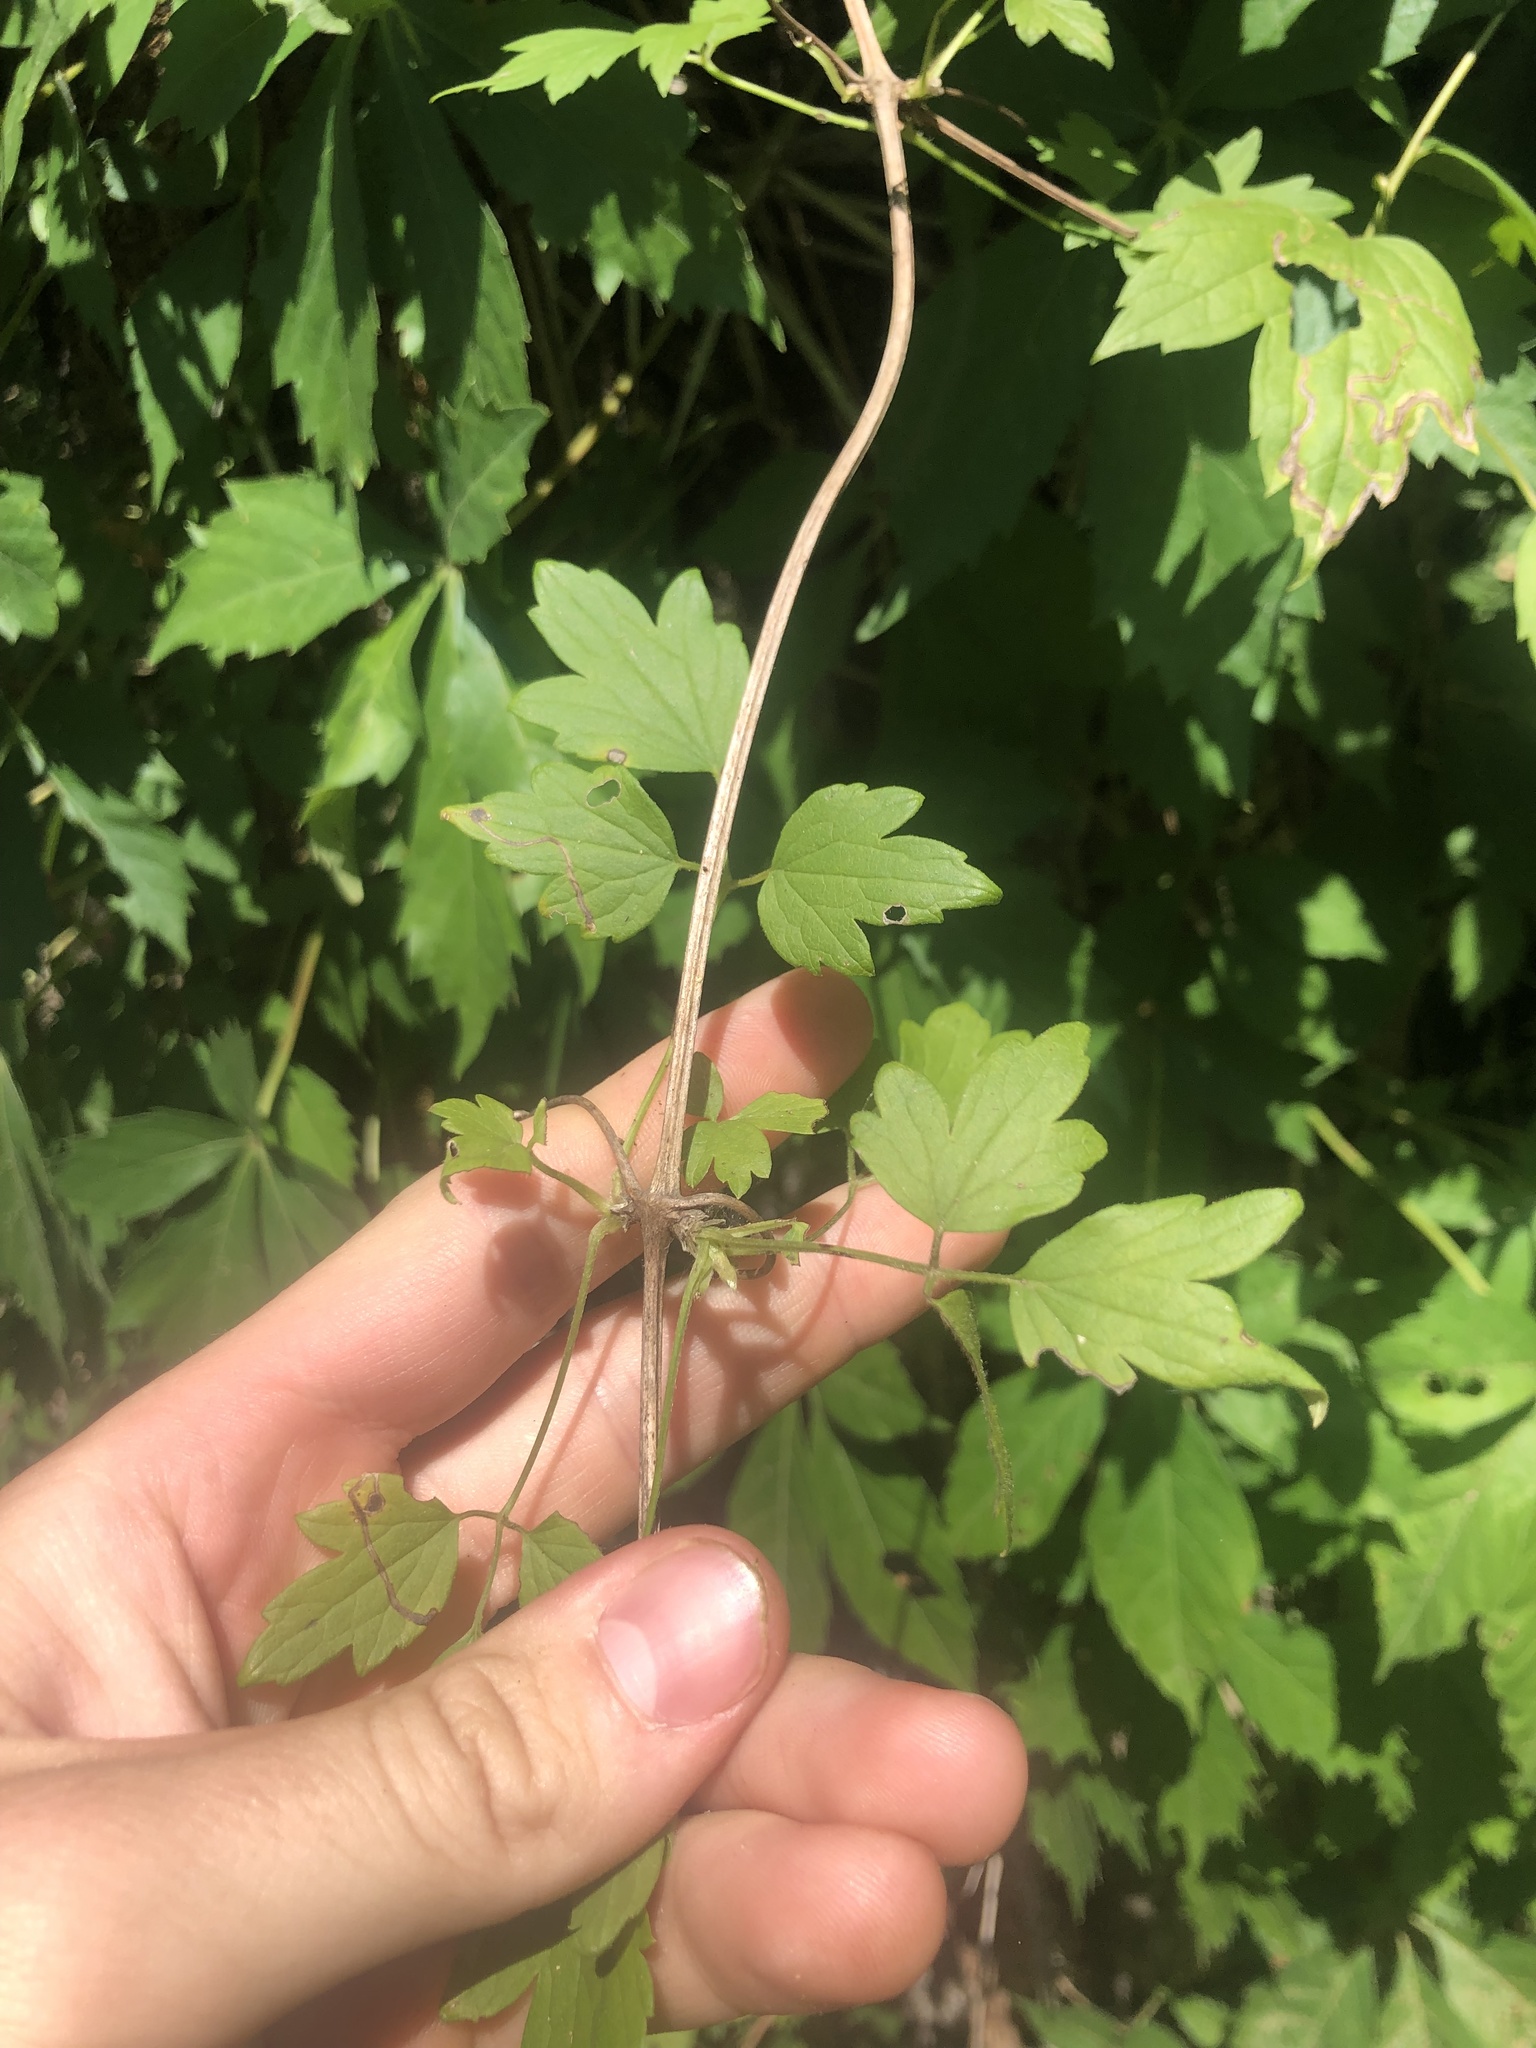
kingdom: Plantae
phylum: Tracheophyta
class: Magnoliopsida
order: Ranunculales
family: Ranunculaceae
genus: Clematis
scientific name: Clematis catesbyana
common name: Virgin's bower
